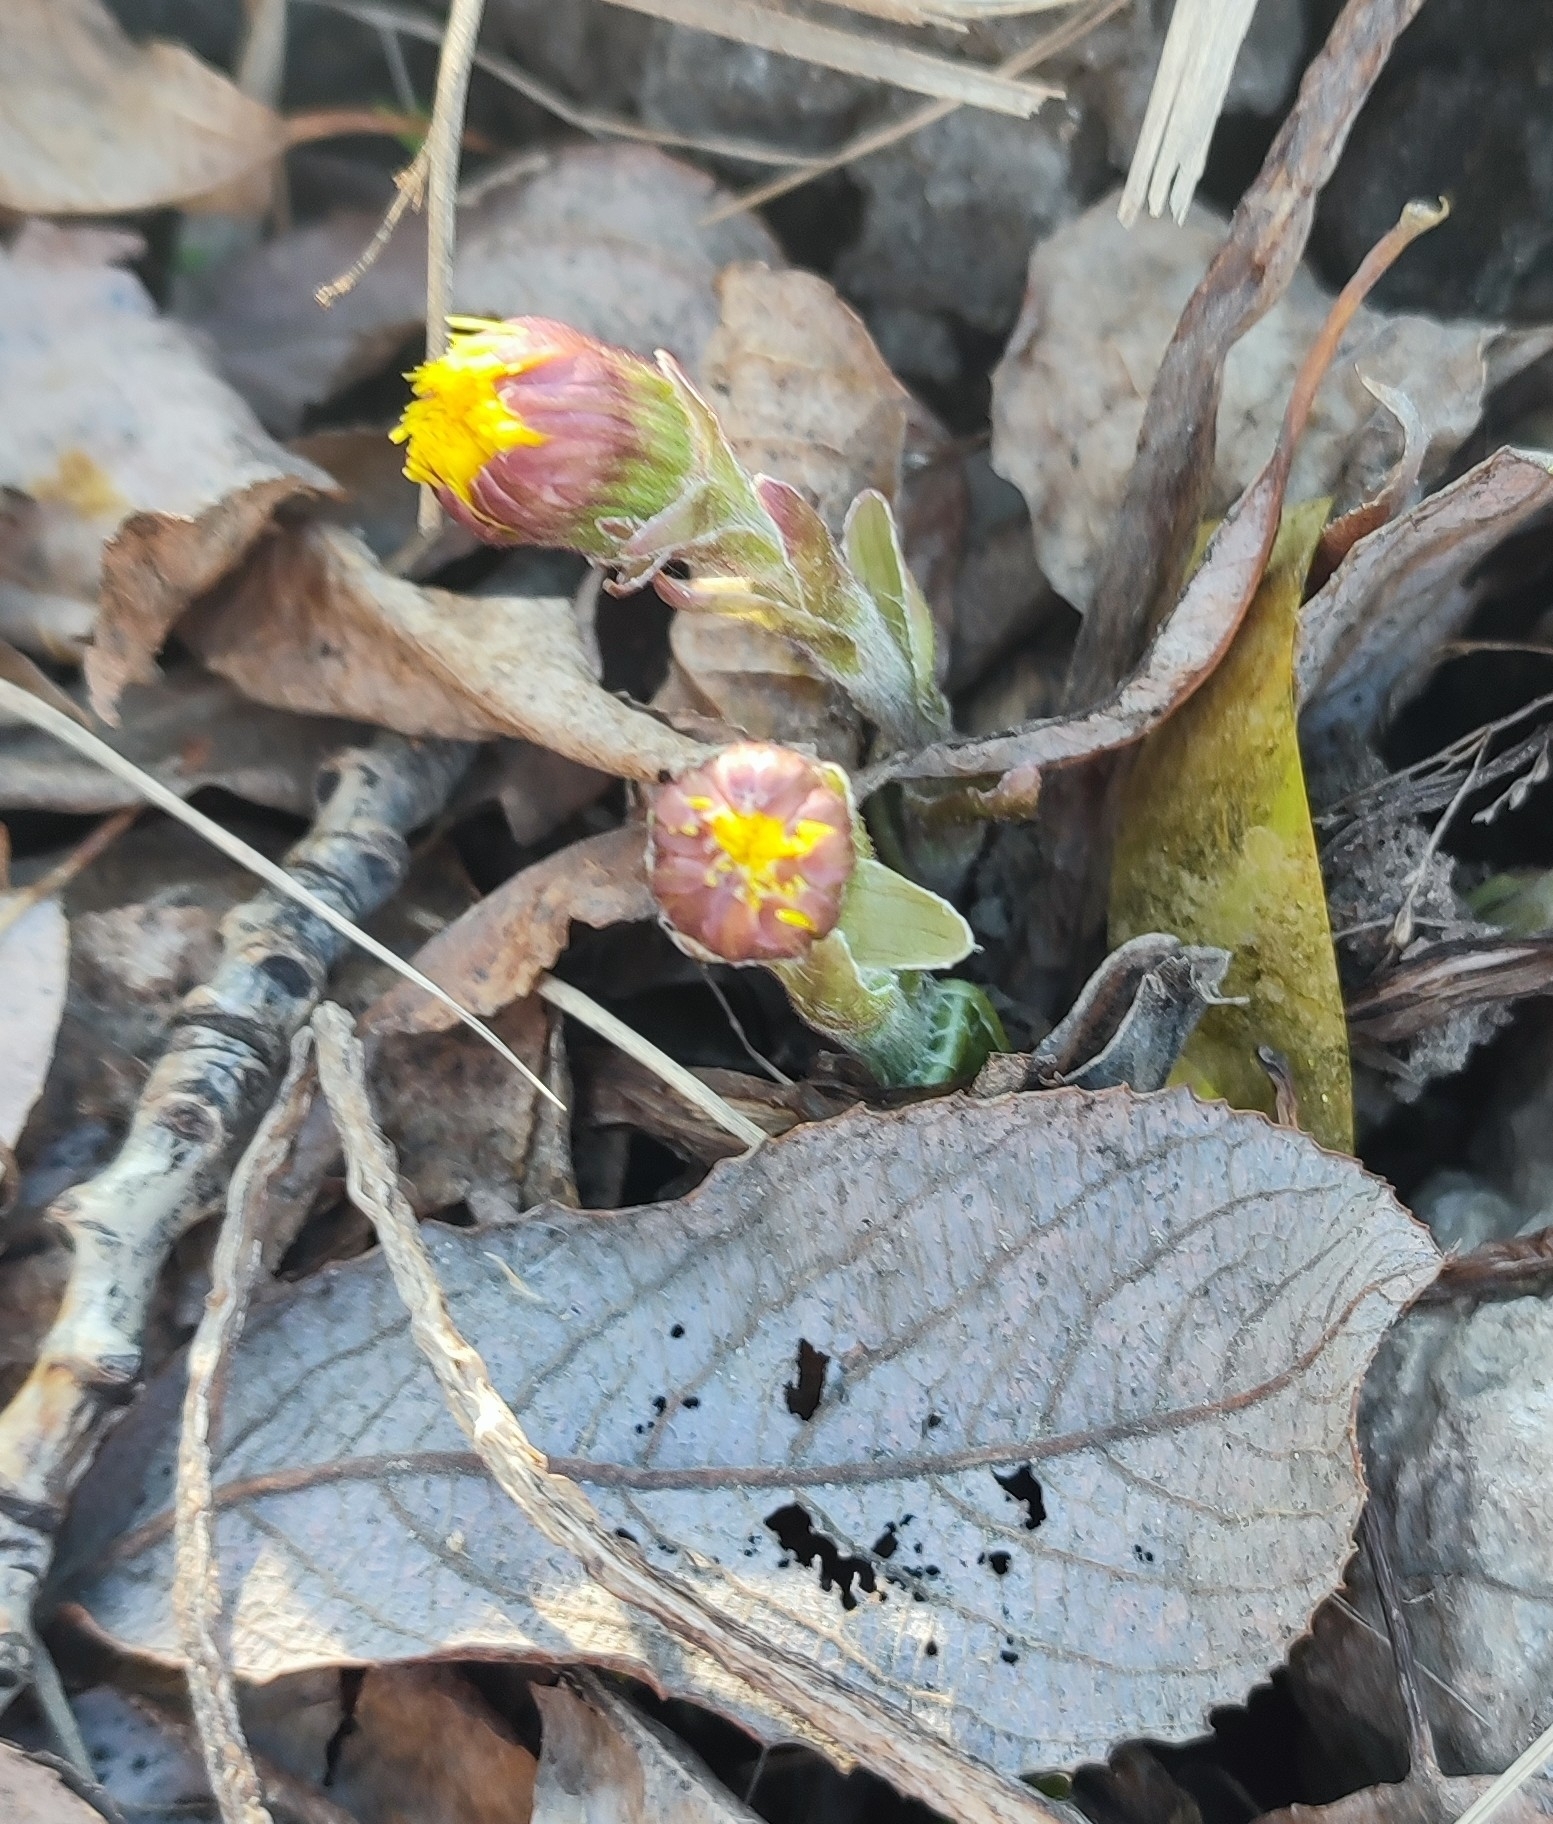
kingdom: Plantae
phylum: Tracheophyta
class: Magnoliopsida
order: Asterales
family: Asteraceae
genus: Tussilago
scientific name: Tussilago farfara
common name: Coltsfoot
